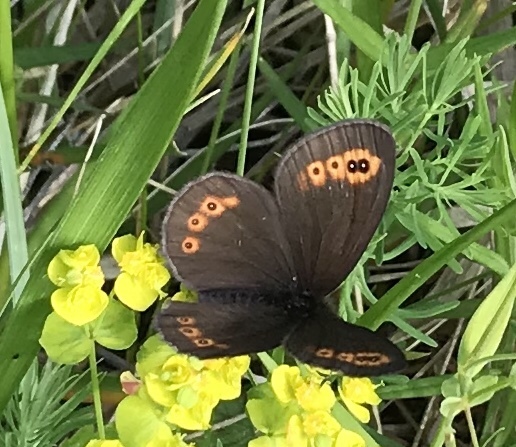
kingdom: Animalia
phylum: Arthropoda
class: Insecta
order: Lepidoptera
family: Nymphalidae
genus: Erebia
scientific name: Erebia medusa
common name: Woodland ringlet
